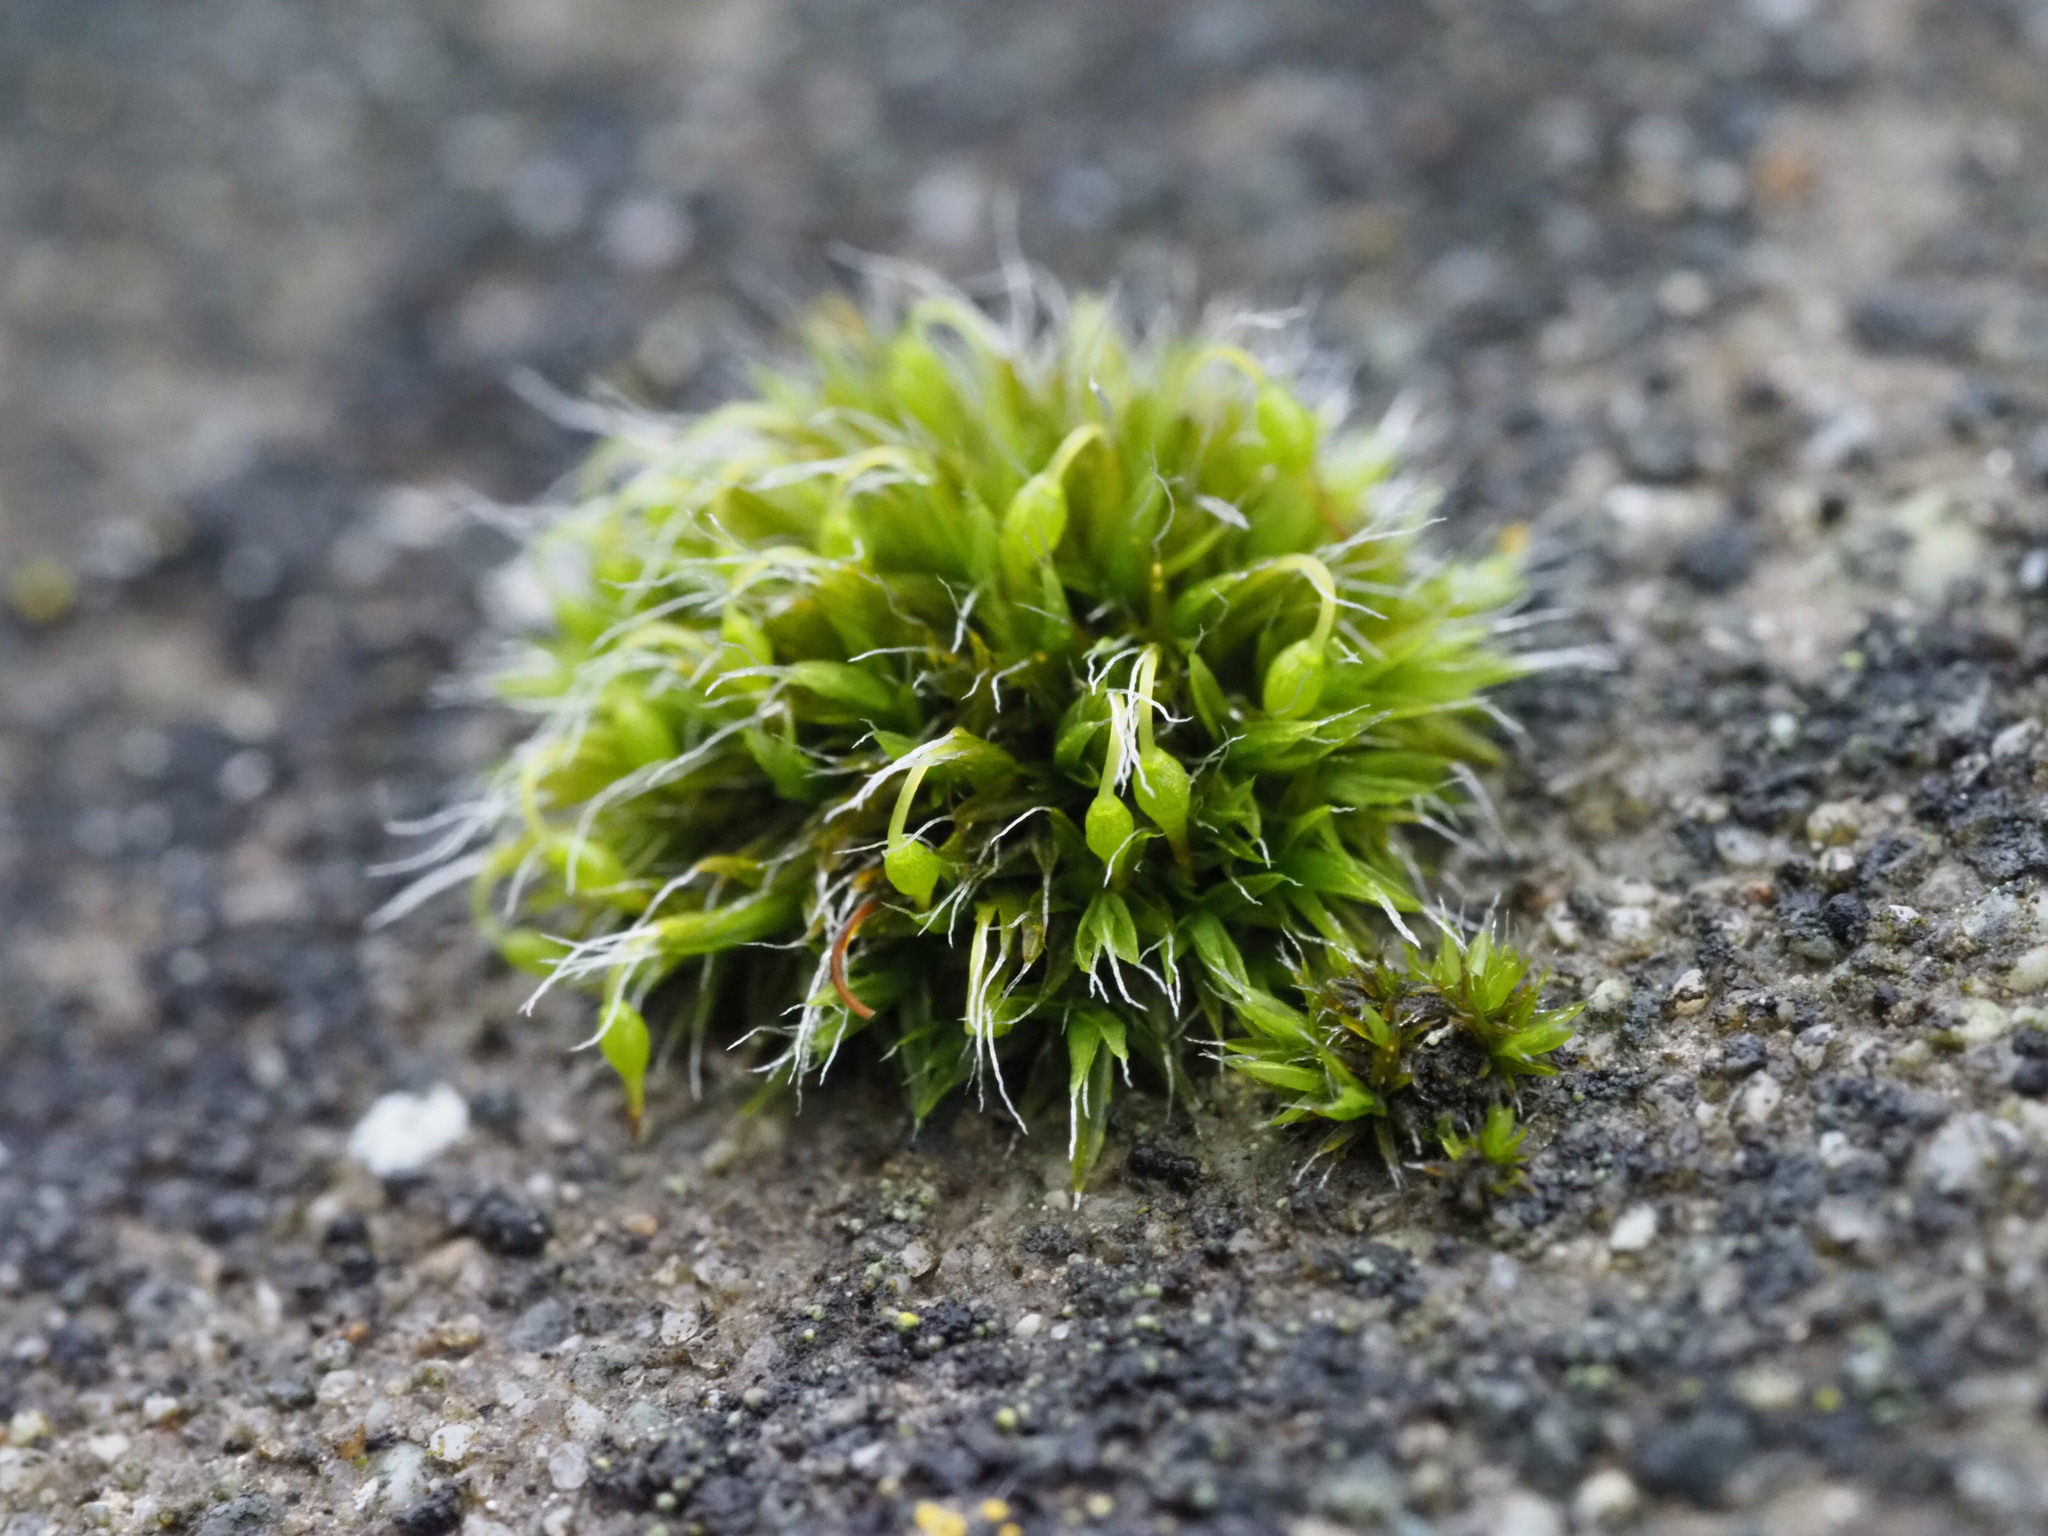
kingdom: Plantae
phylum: Bryophyta
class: Bryopsida
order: Grimmiales
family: Grimmiaceae
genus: Grimmia
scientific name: Grimmia pulvinata
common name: Grey-cushioned grimmia
